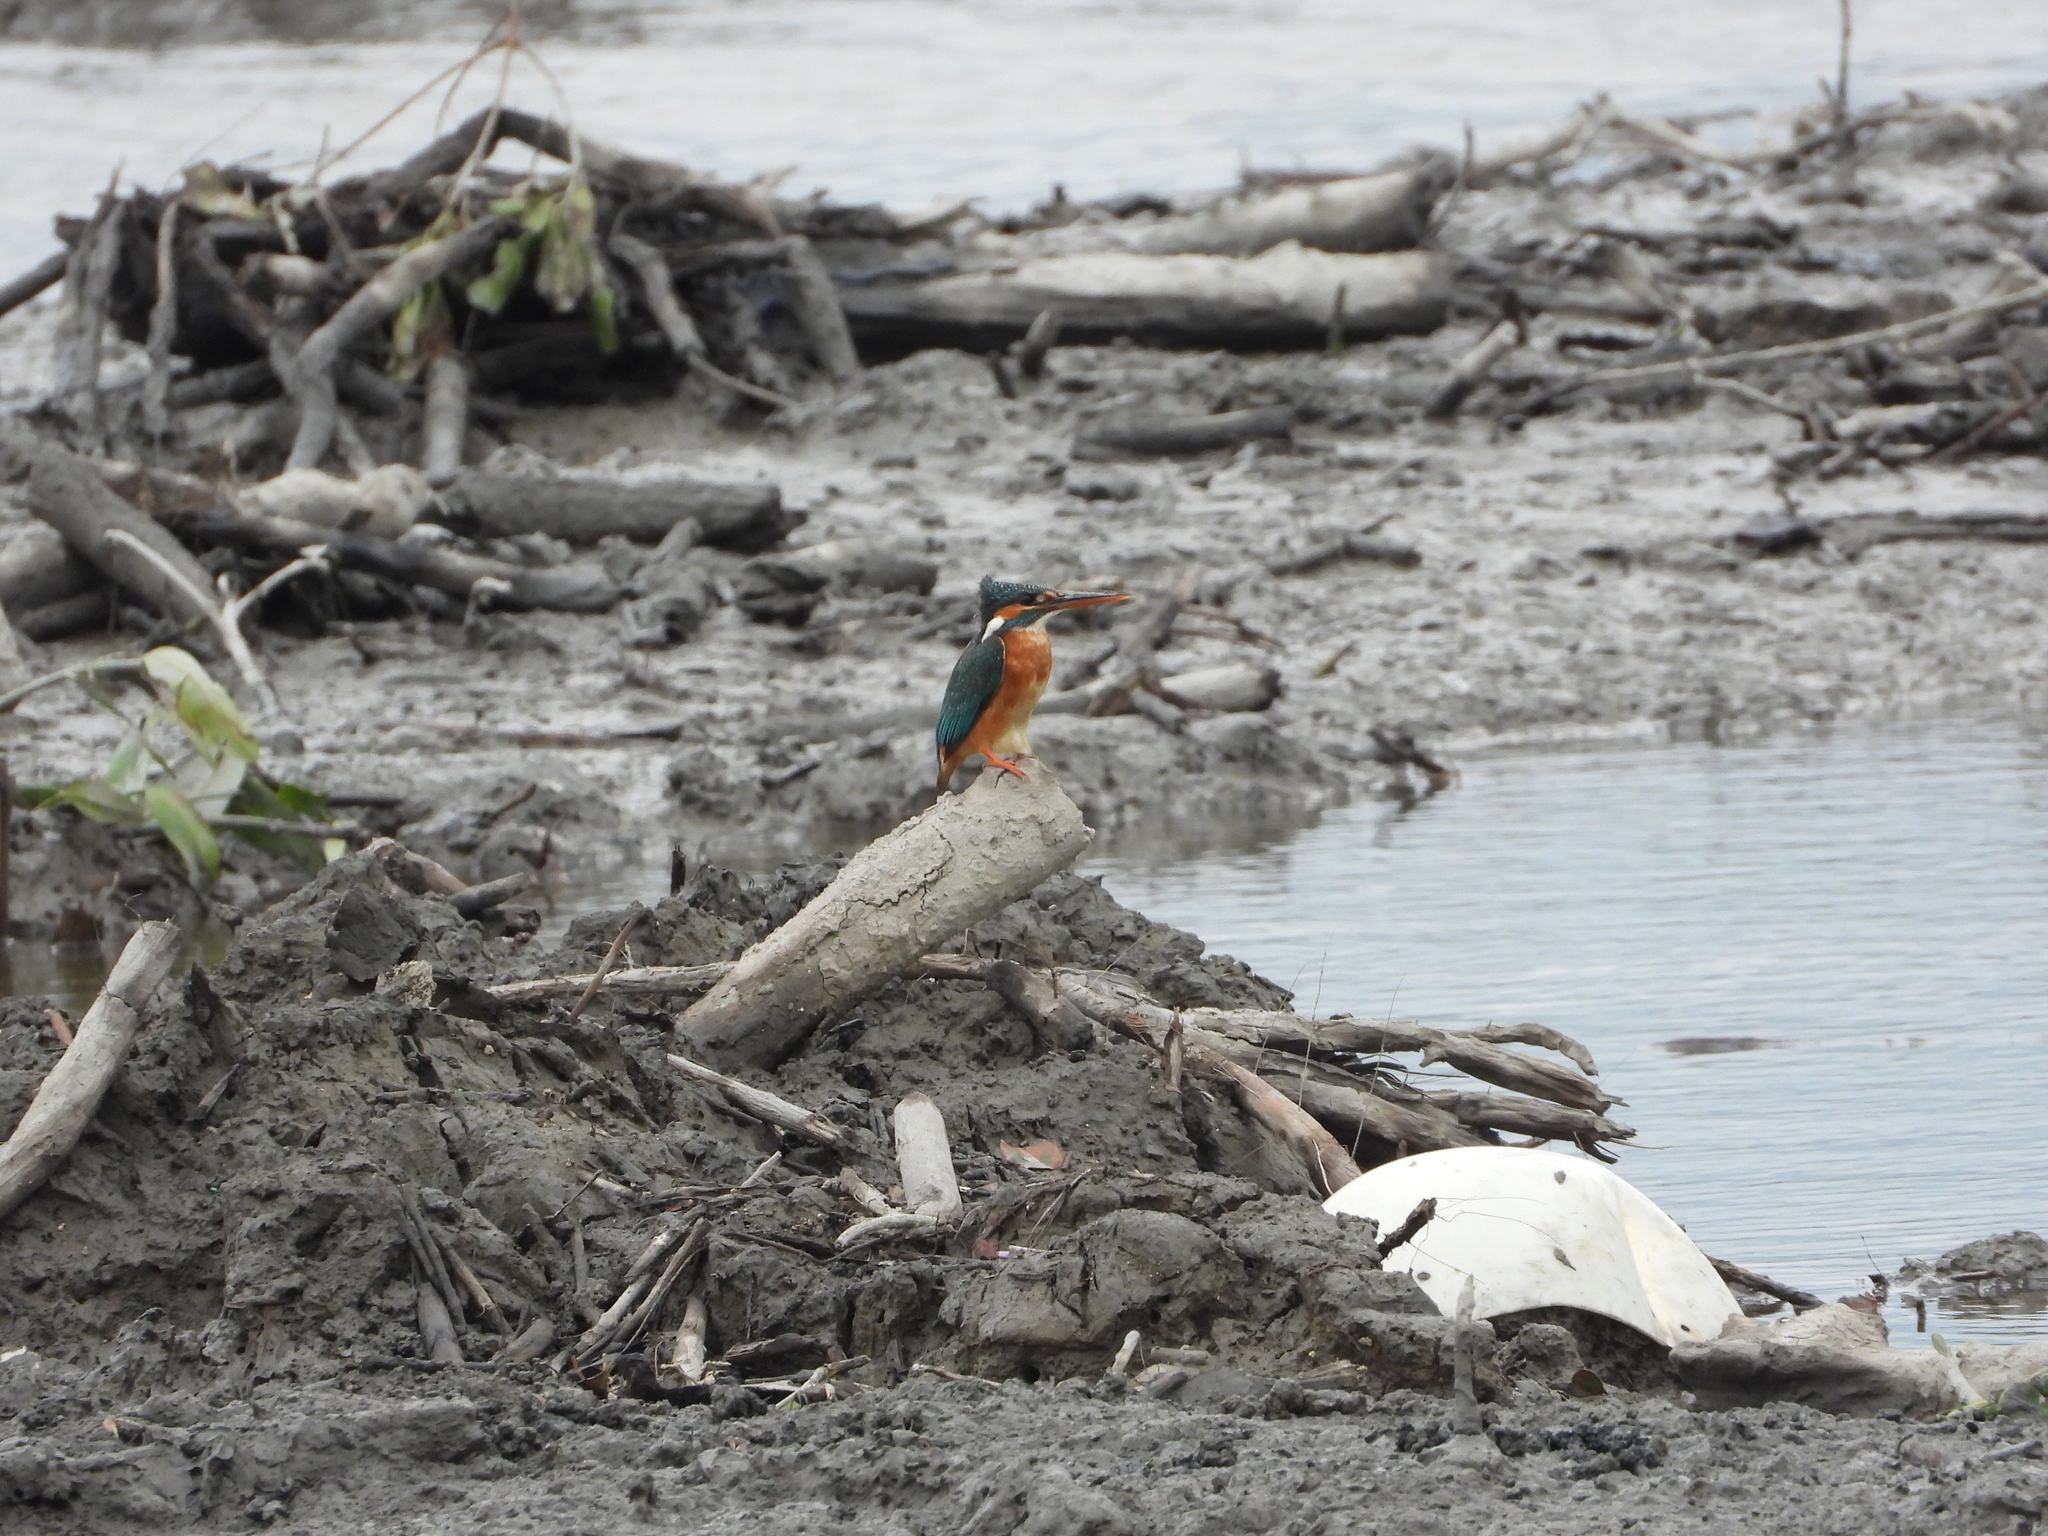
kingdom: Animalia
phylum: Chordata
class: Aves
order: Coraciiformes
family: Alcedinidae
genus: Alcedo
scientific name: Alcedo atthis
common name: Common kingfisher
